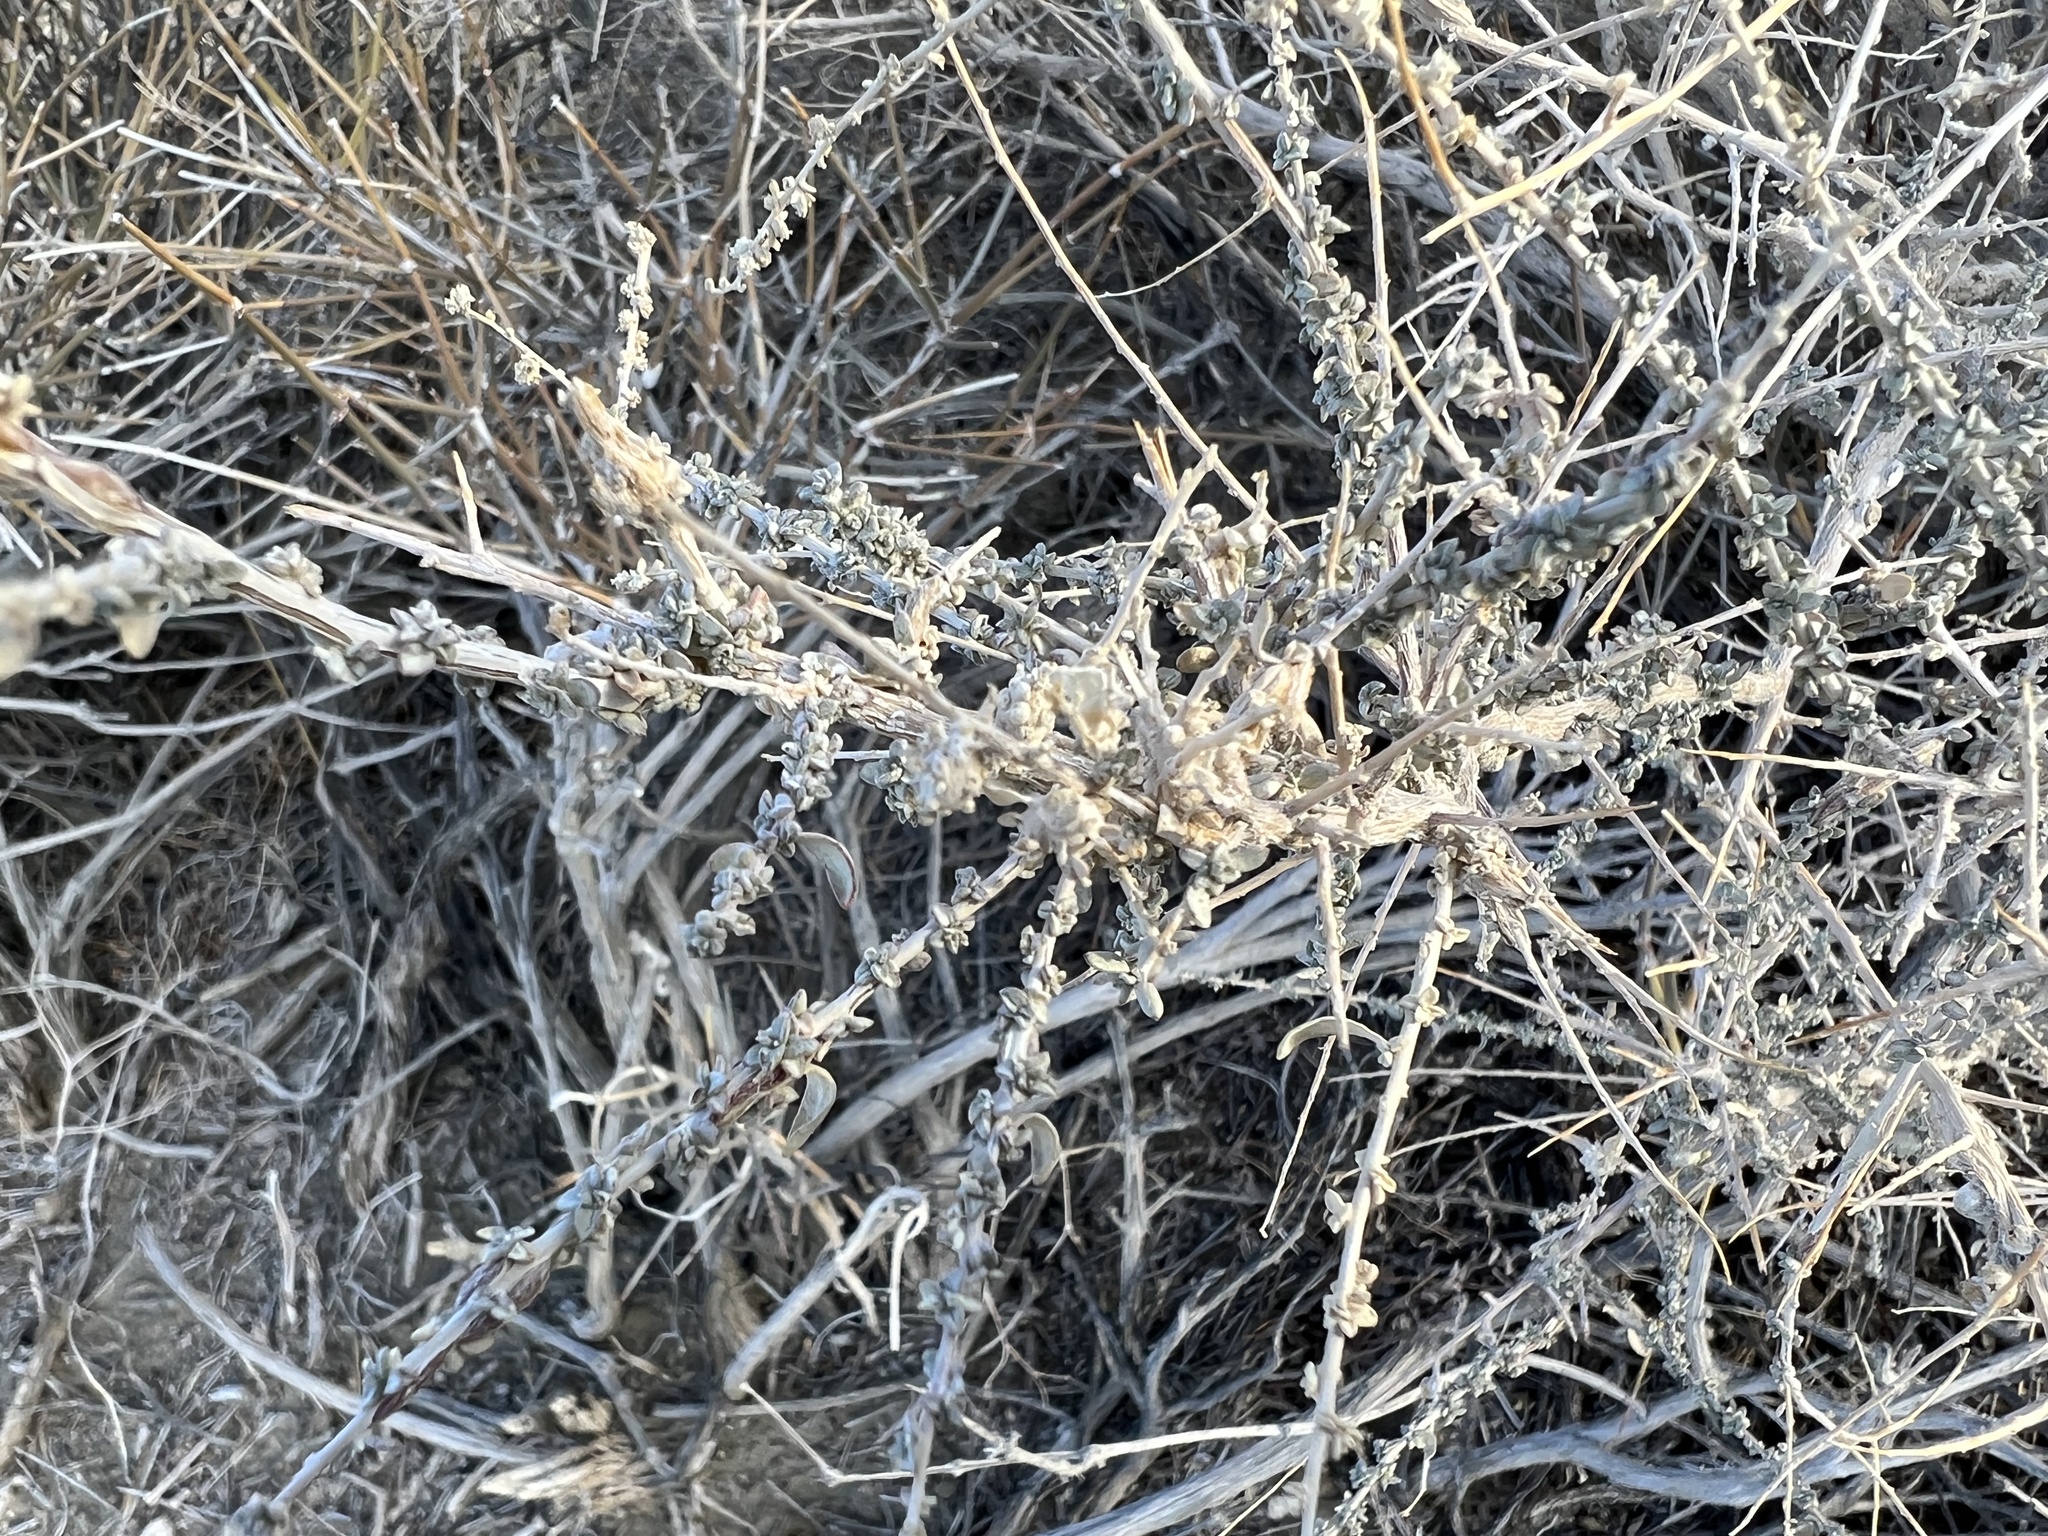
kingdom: Plantae
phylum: Tracheophyta
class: Magnoliopsida
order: Caryophyllales
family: Amaranthaceae
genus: Atriplex
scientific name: Atriplex polycarpa
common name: Desert saltbush
